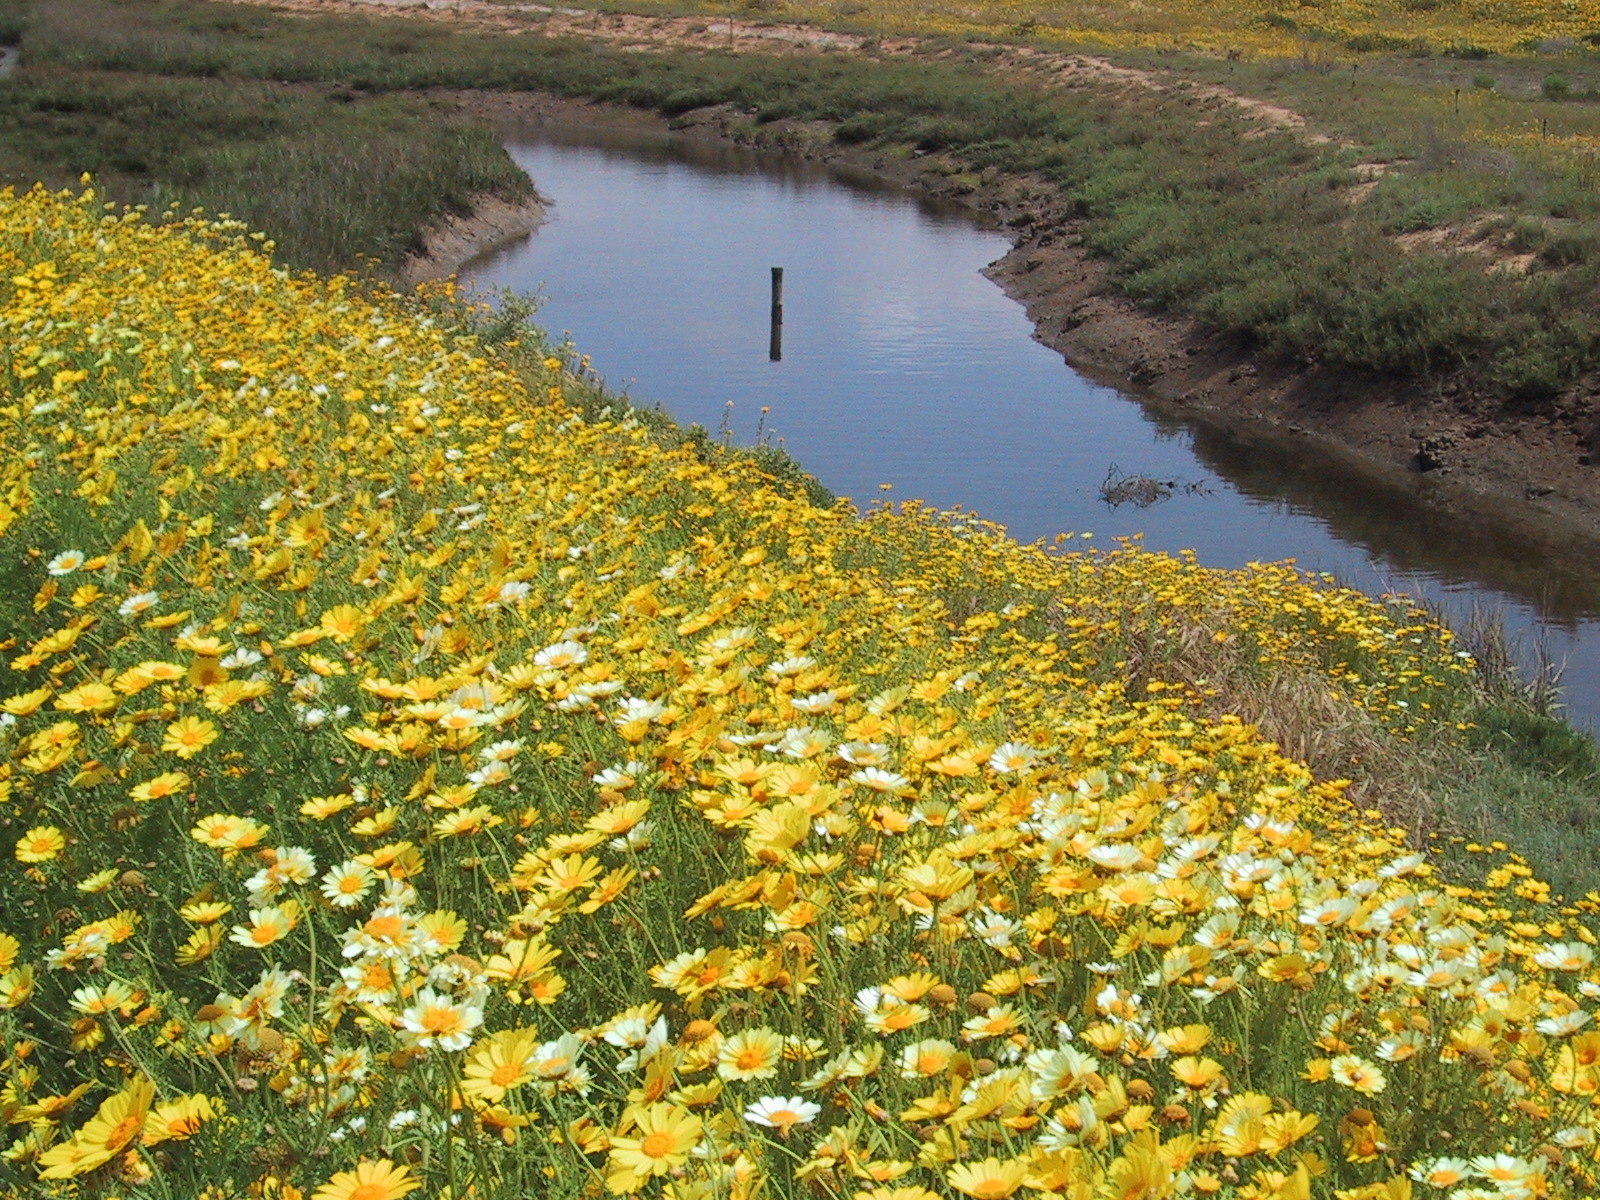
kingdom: Plantae
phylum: Tracheophyta
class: Magnoliopsida
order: Asterales
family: Asteraceae
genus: Glebionis
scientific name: Glebionis coronaria
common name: Crowndaisy
